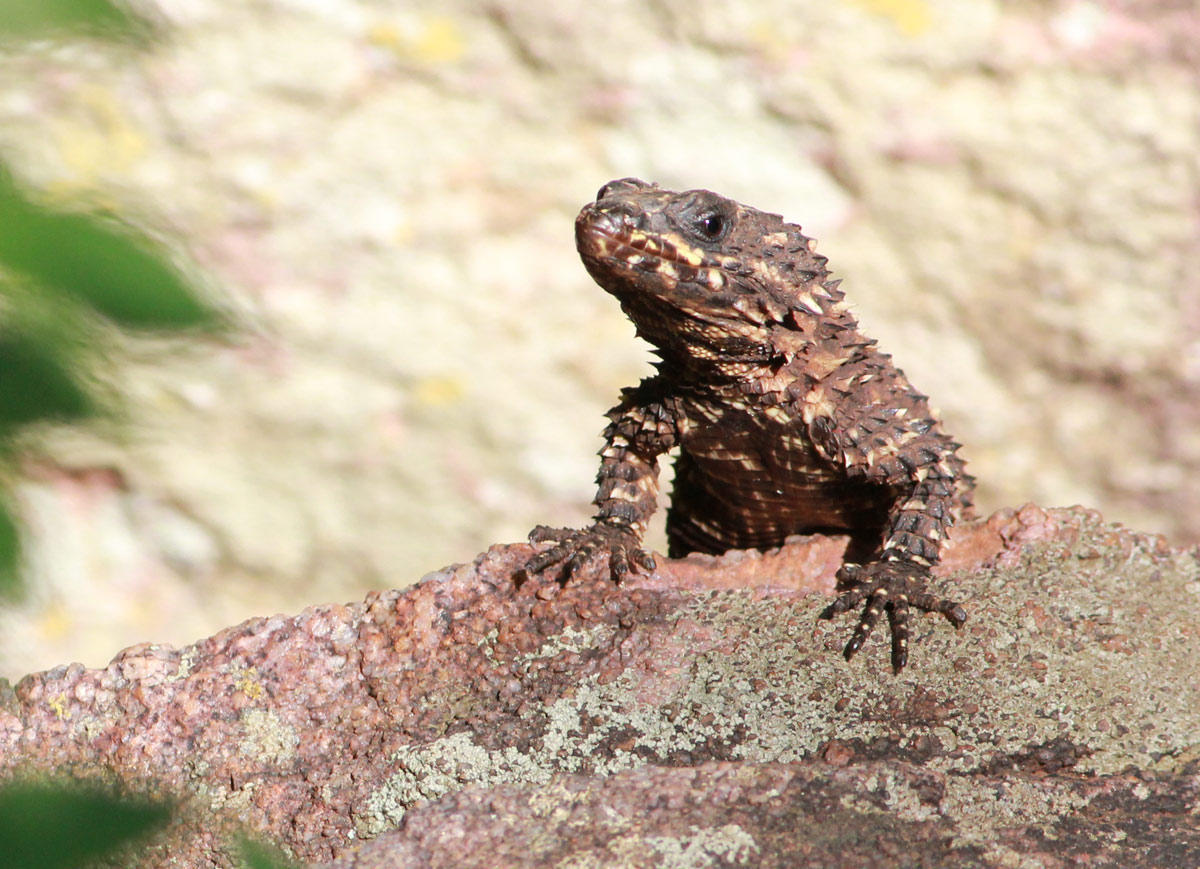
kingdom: Animalia
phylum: Chordata
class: Squamata
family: Cordylidae
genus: Smaug
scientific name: Smaug depressus
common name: Flat dragon lizard
